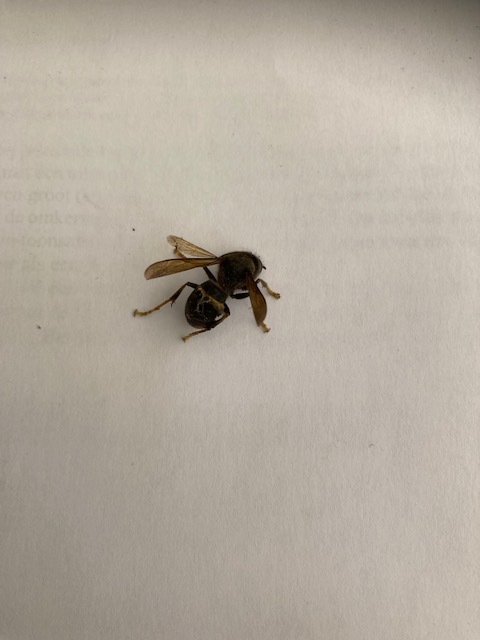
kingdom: Animalia
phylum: Arthropoda
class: Insecta
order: Hymenoptera
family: Vespidae
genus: Vespa
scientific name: Vespa velutina
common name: Asian hornet
